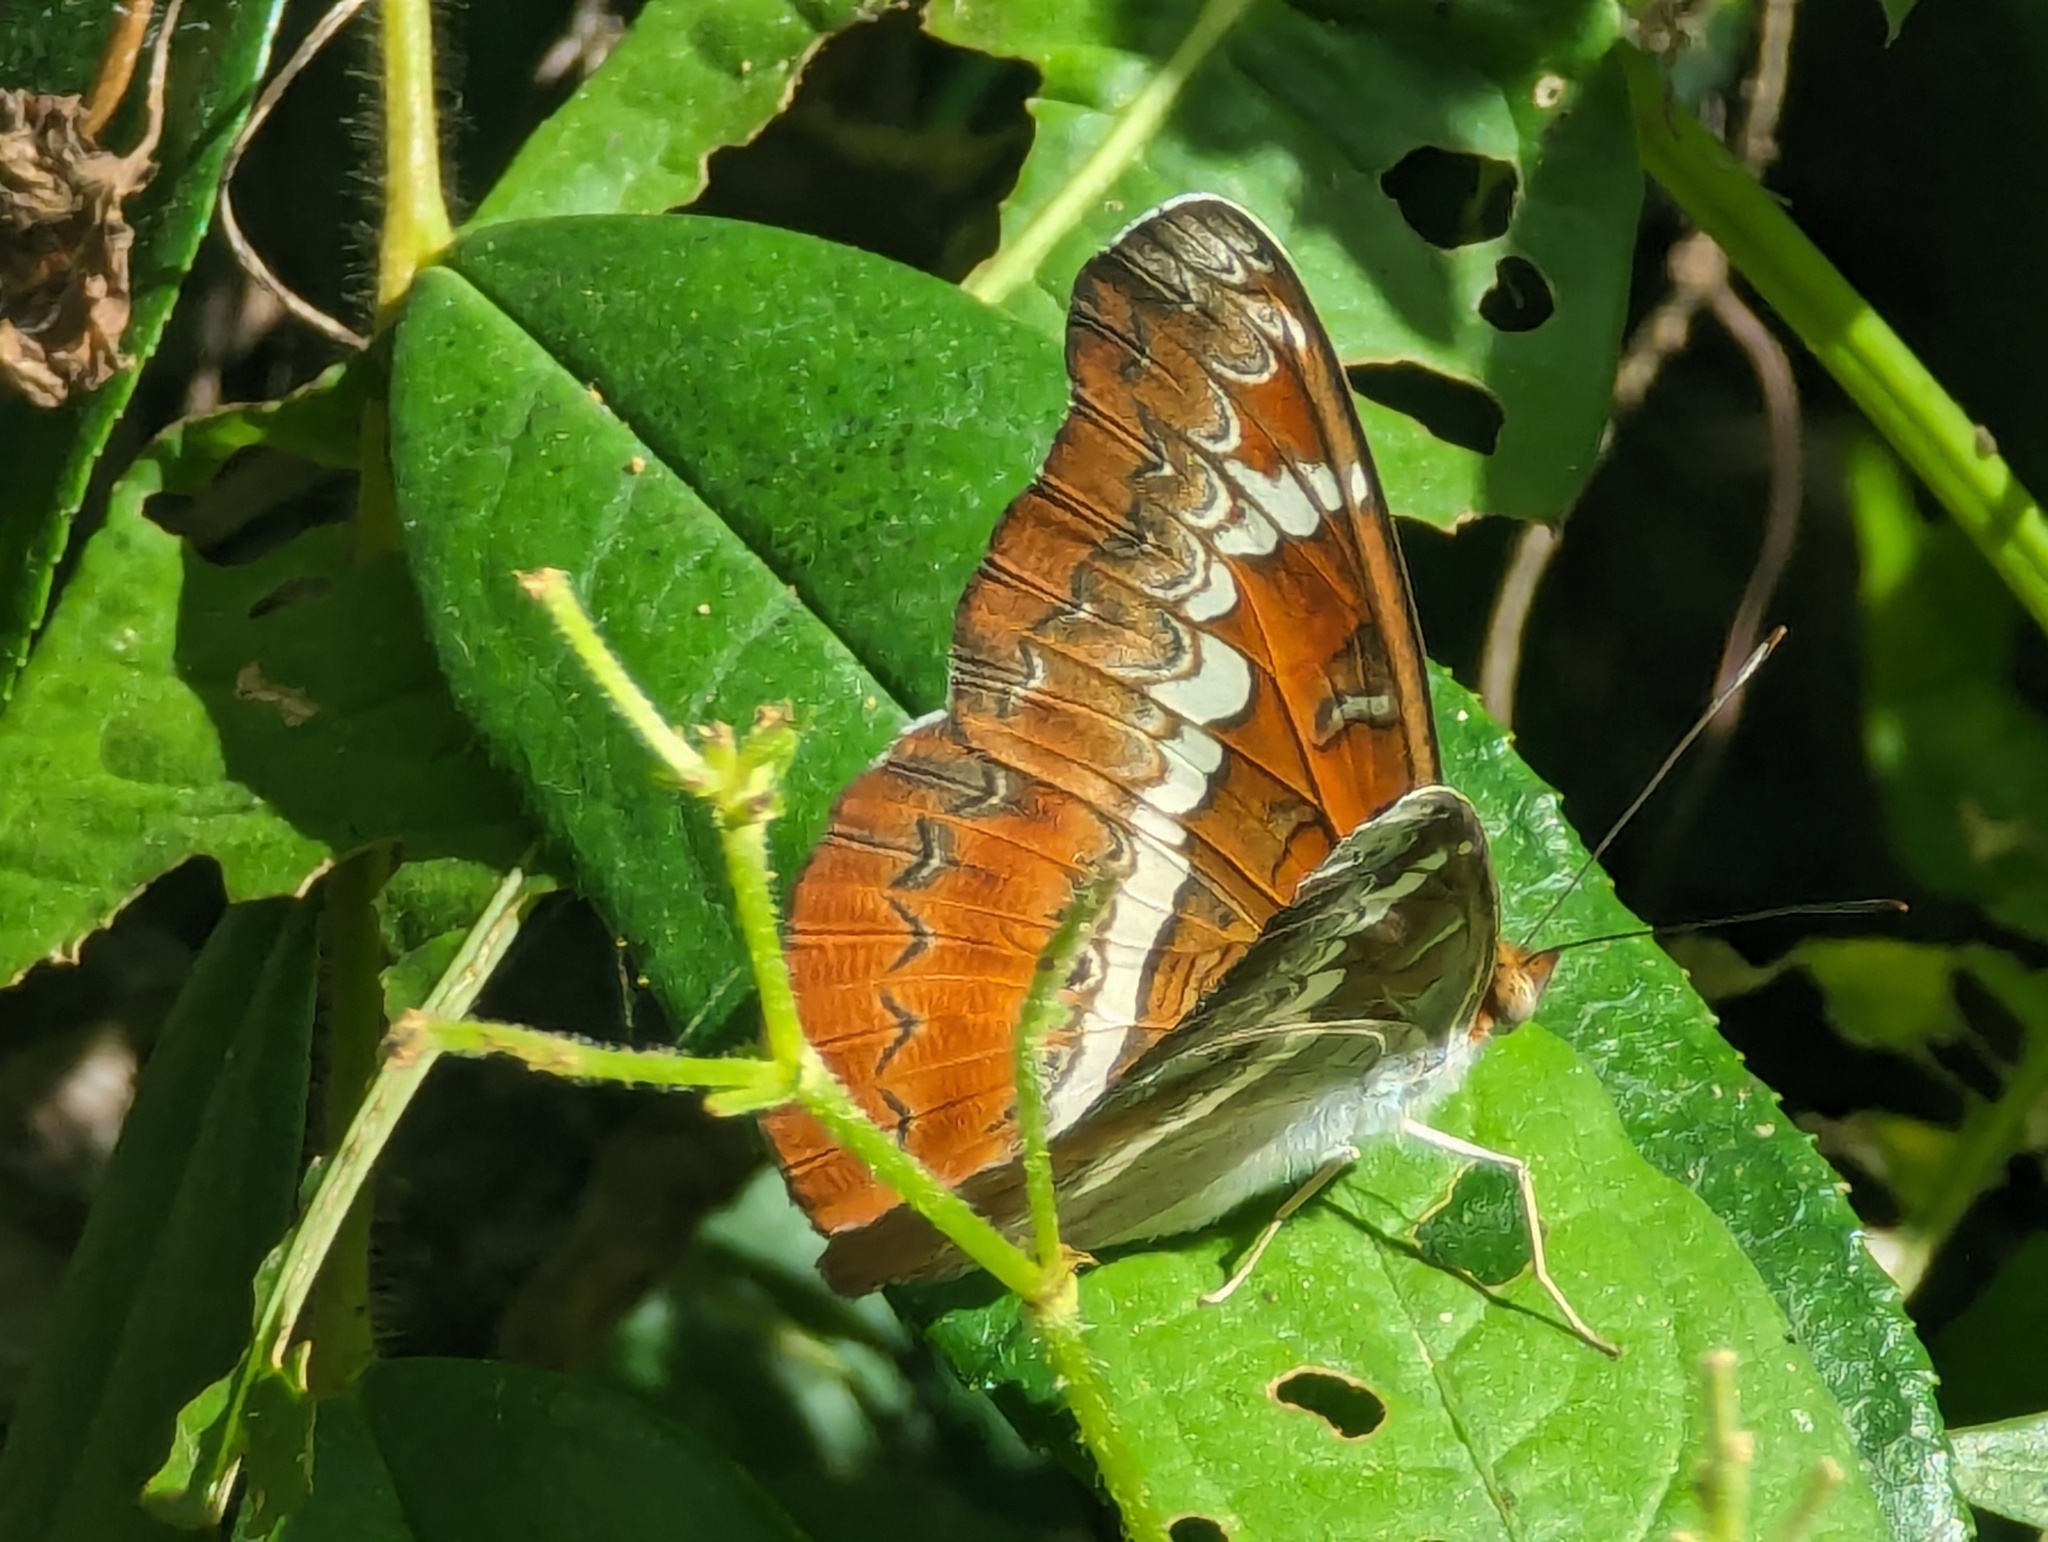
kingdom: Animalia
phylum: Arthropoda
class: Insecta
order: Lepidoptera
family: Nymphalidae
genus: Lebadea
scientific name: Lebadea martha
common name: Knight
